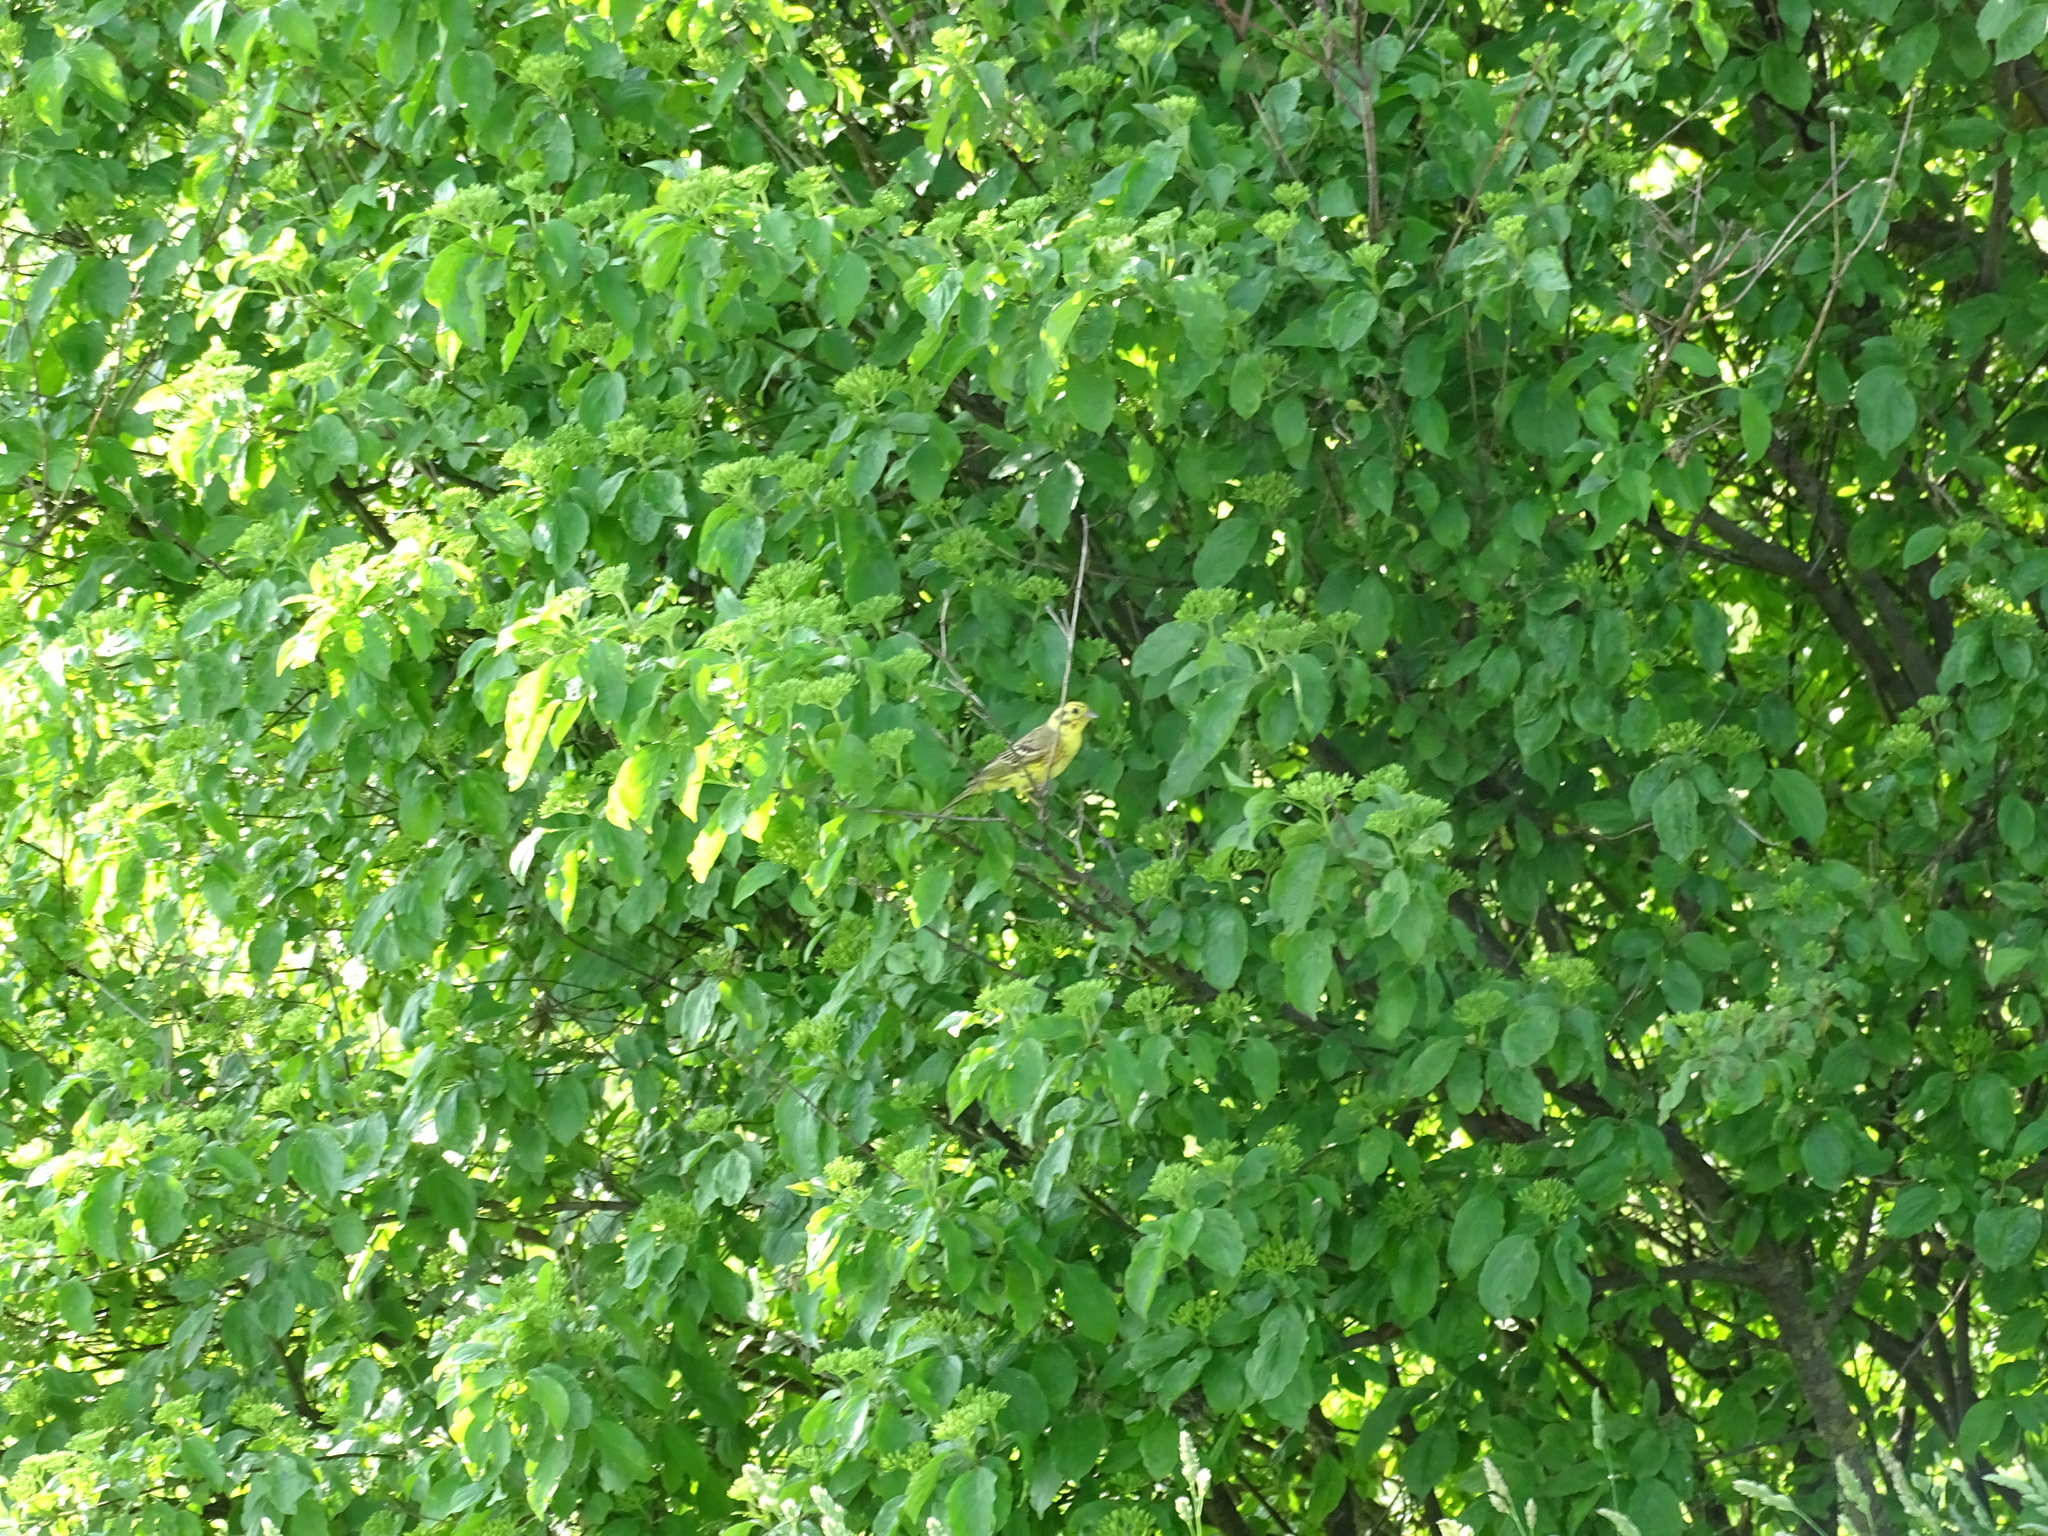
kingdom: Animalia
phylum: Chordata
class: Aves
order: Passeriformes
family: Emberizidae
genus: Emberiza
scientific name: Emberiza citrinella
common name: Yellowhammer
